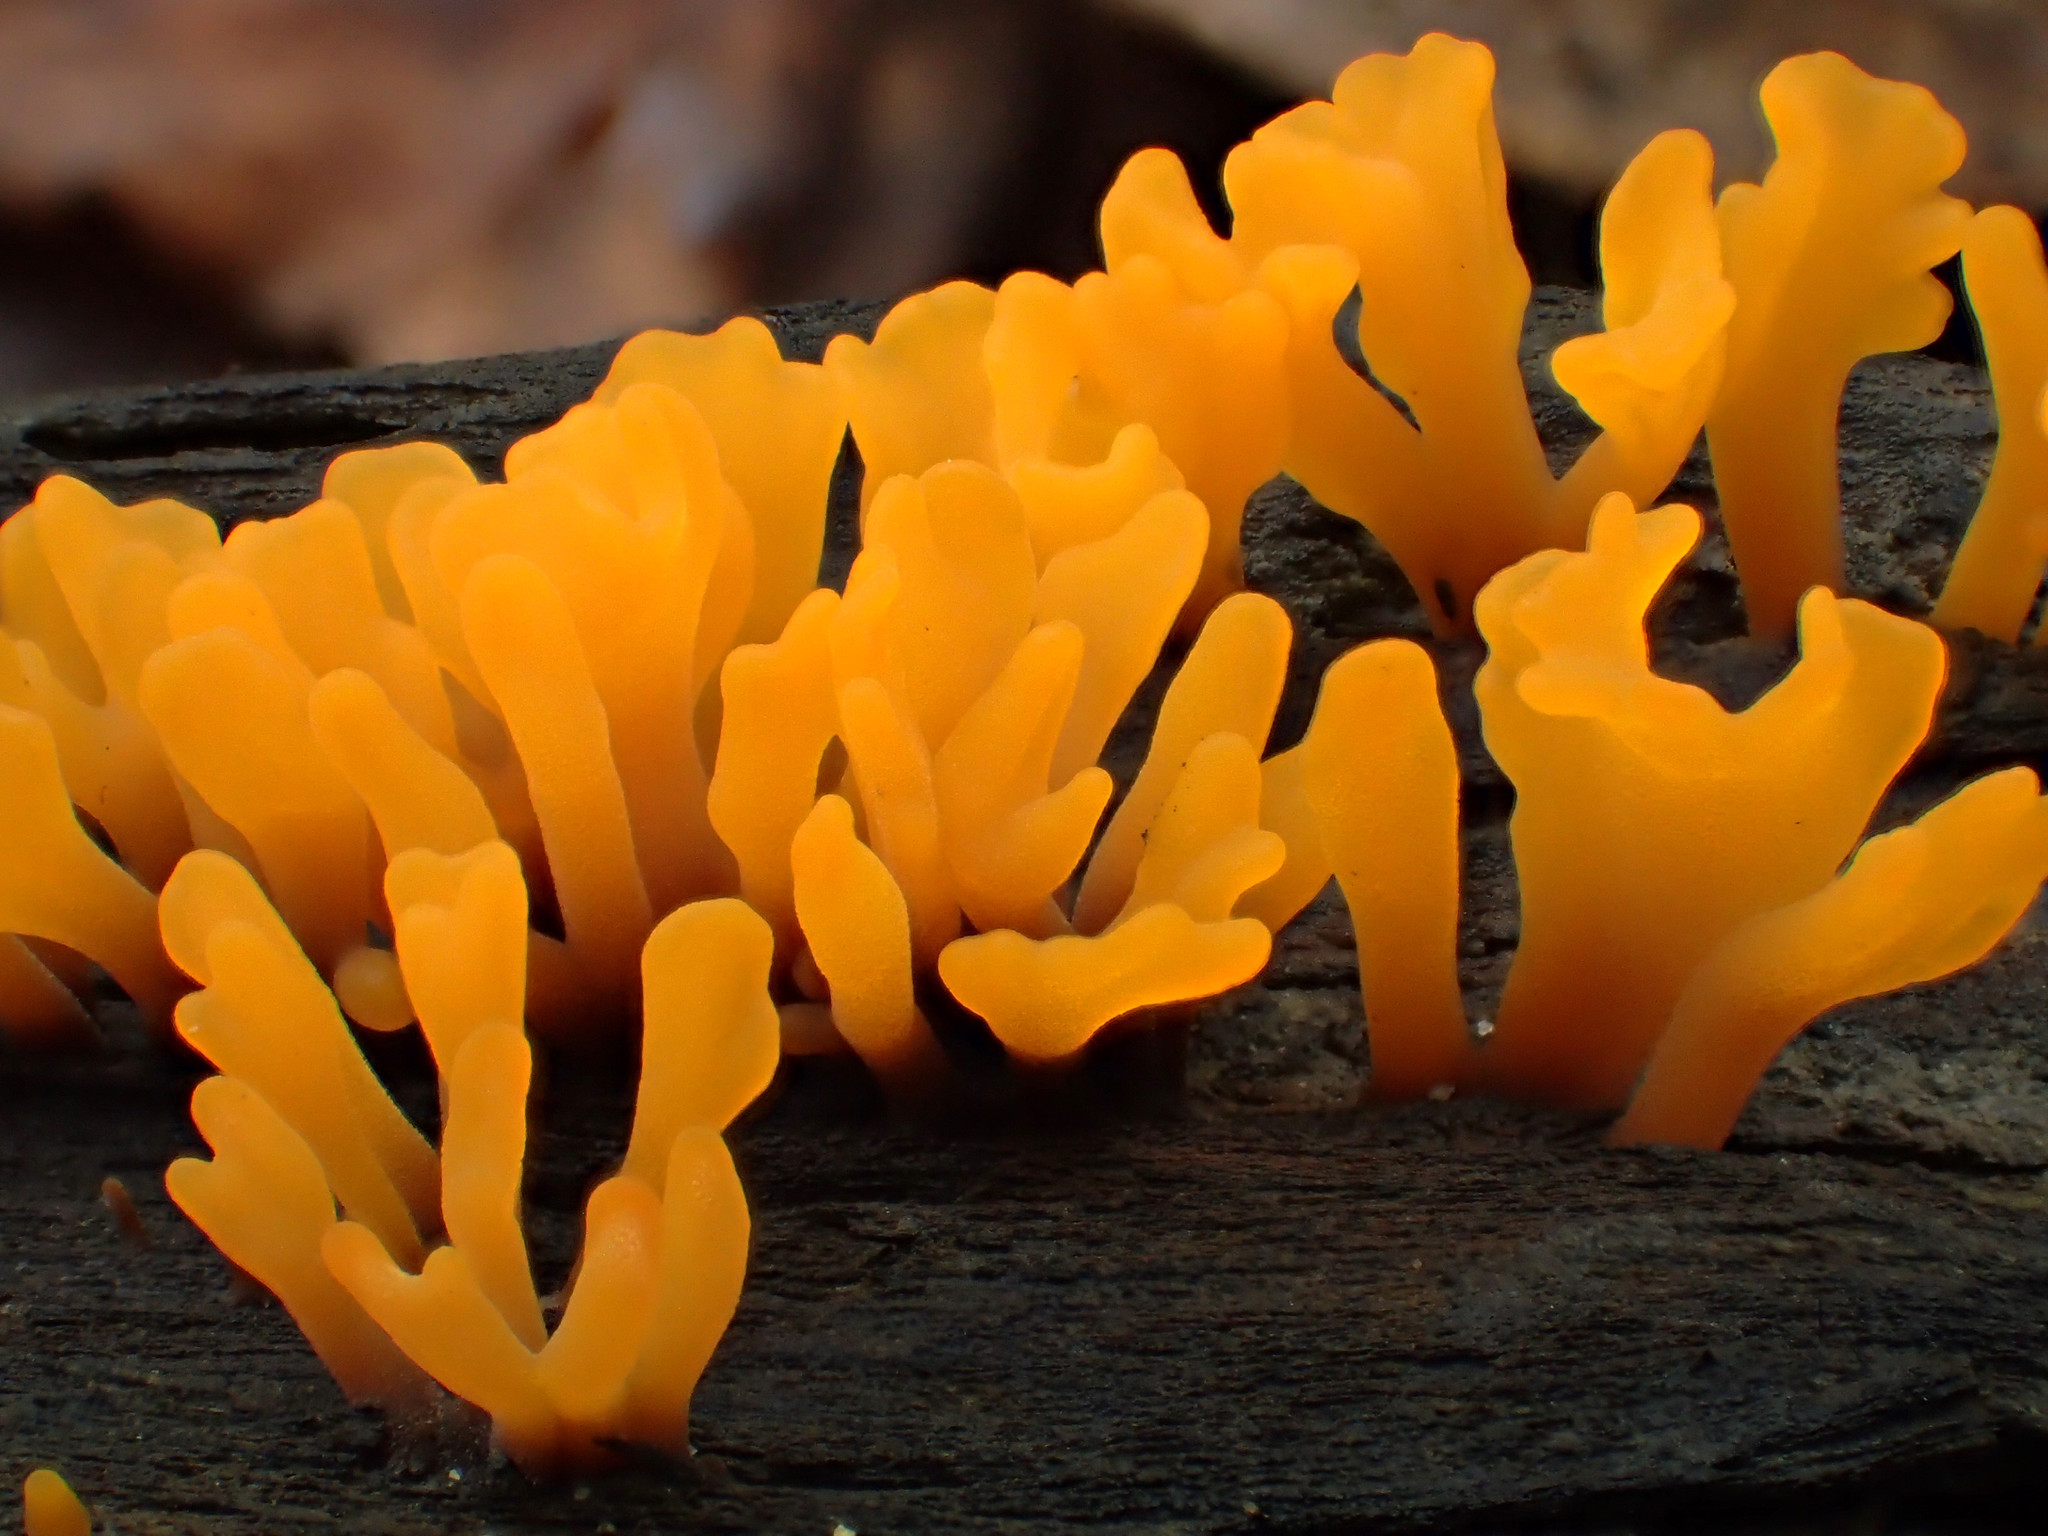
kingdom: Fungi
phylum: Basidiomycota
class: Dacrymycetes
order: Dacrymycetales
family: Dacrymycetaceae
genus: Dacrymyces
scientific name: Dacrymyces spathularius
